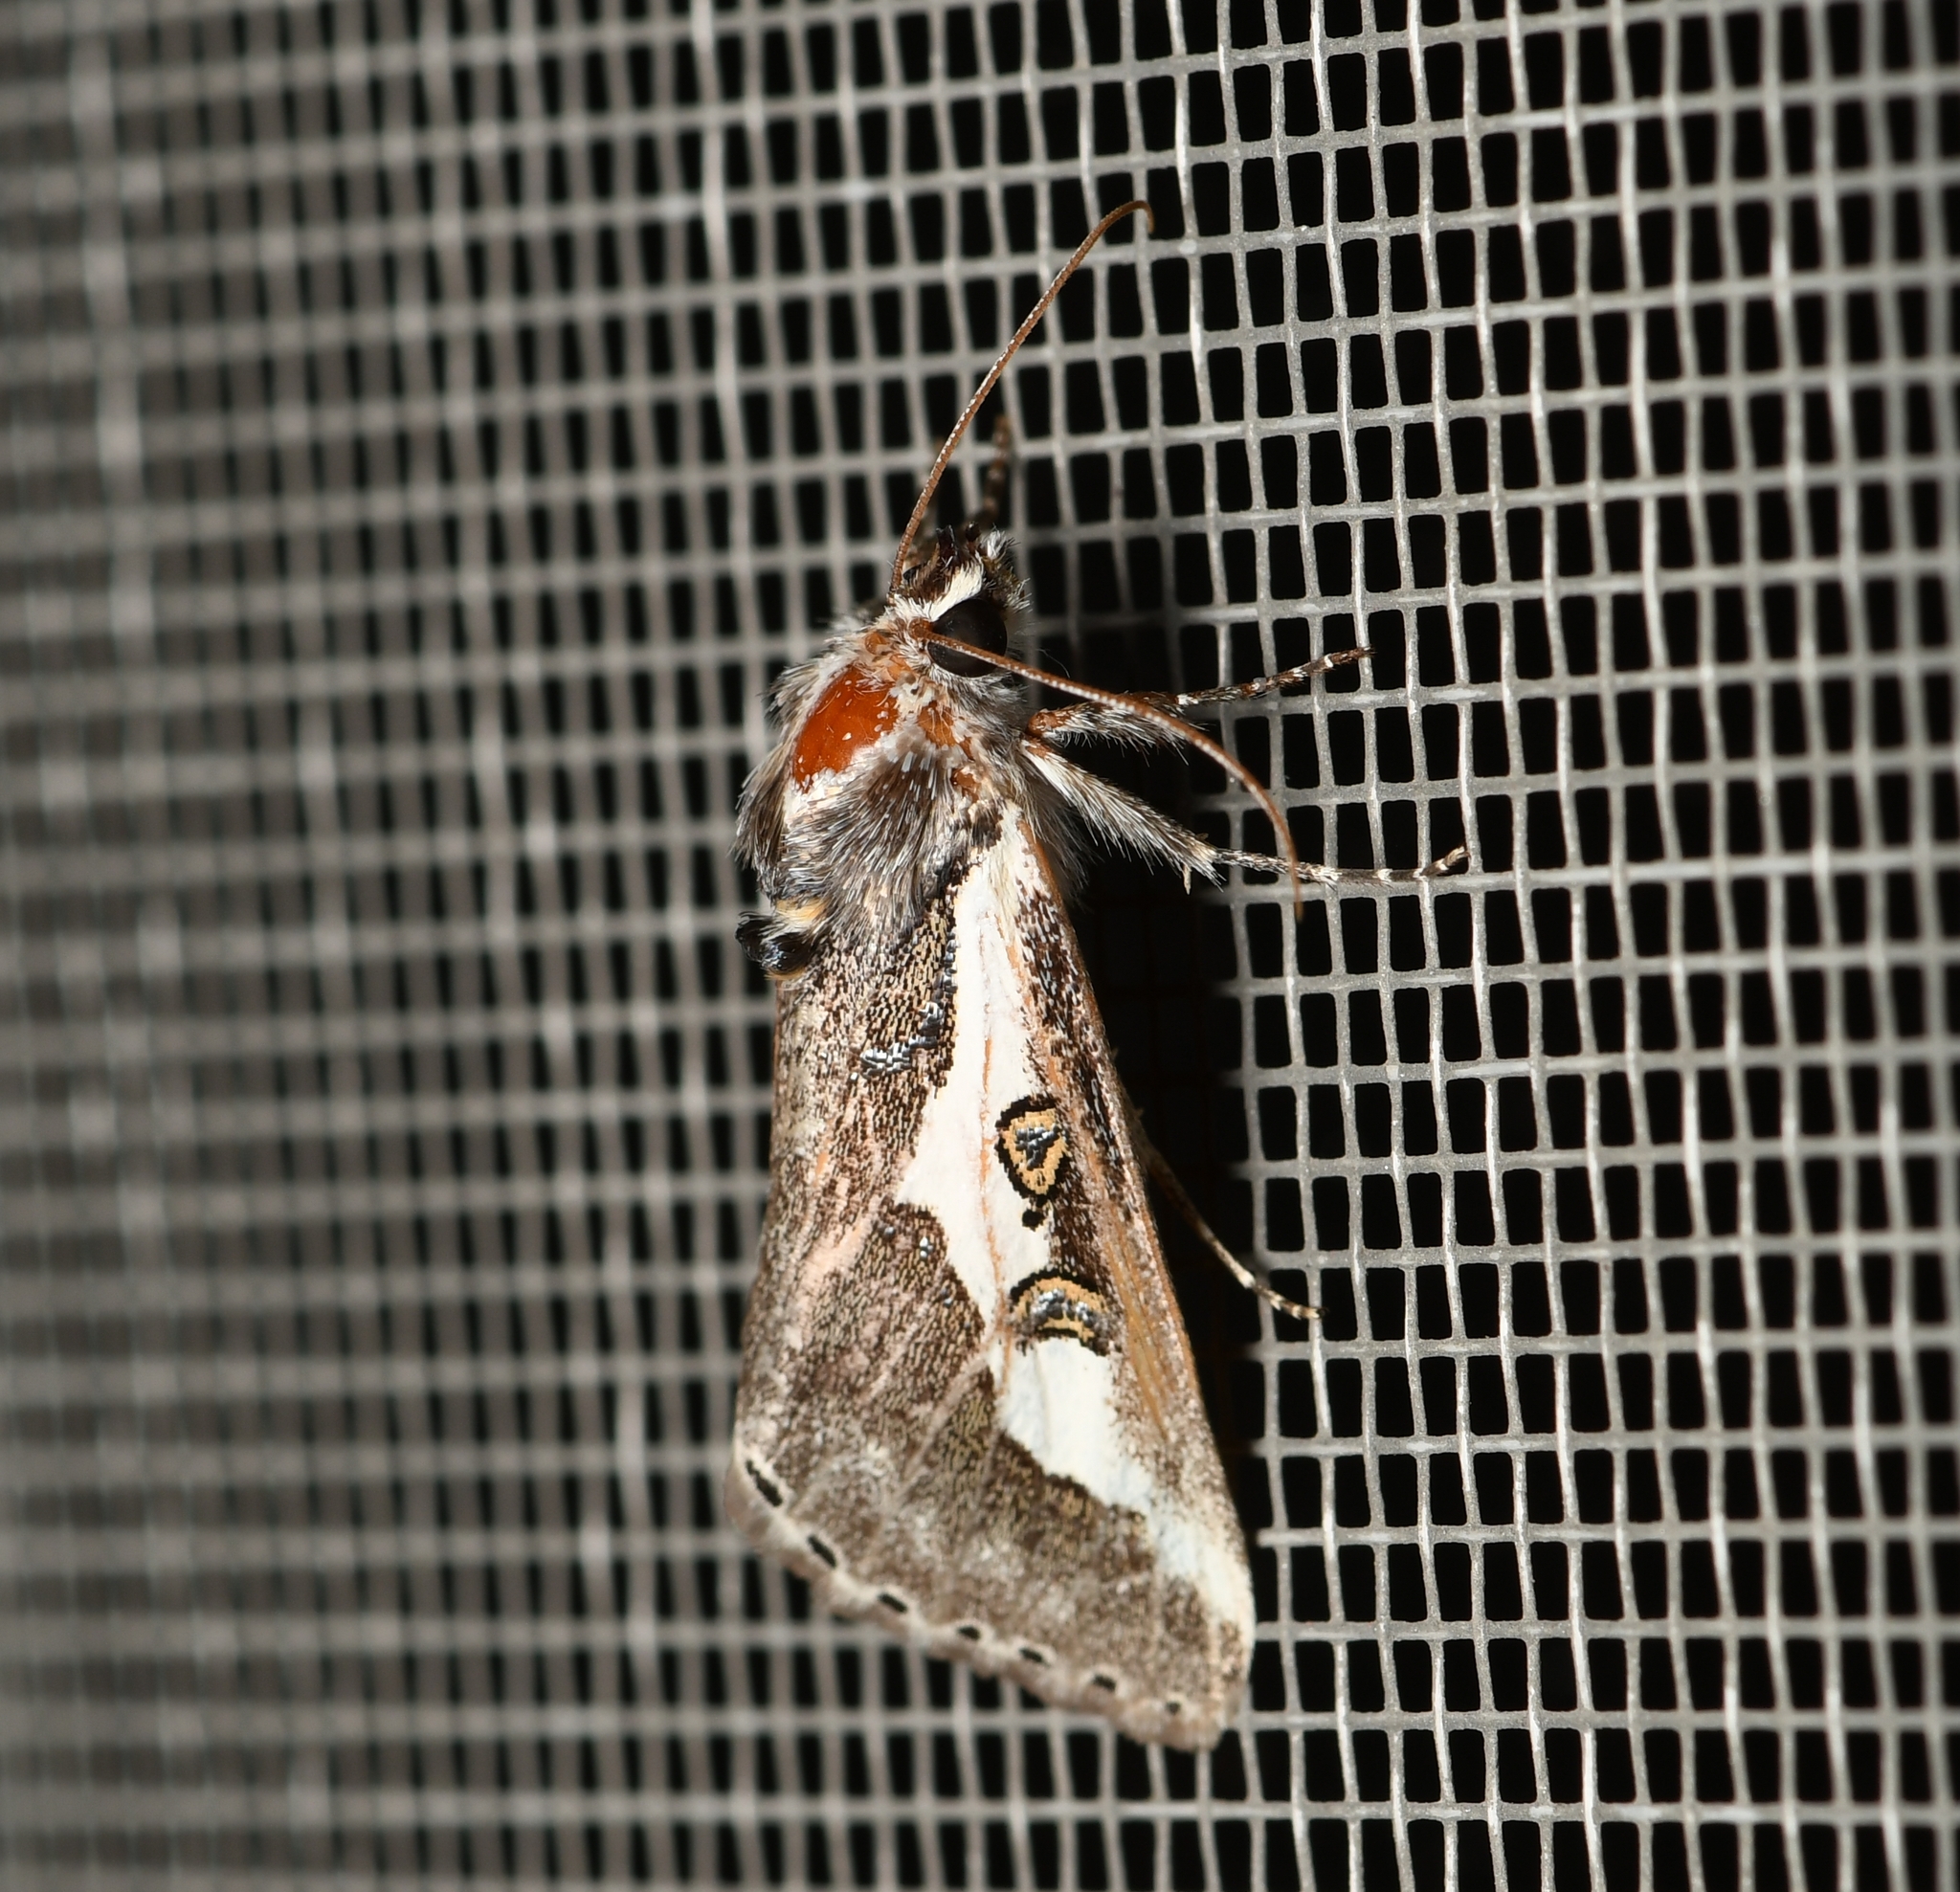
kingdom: Animalia
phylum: Arthropoda
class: Insecta
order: Lepidoptera
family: Noctuidae
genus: Euscirrhopterus
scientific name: Euscirrhopterus gloveri
